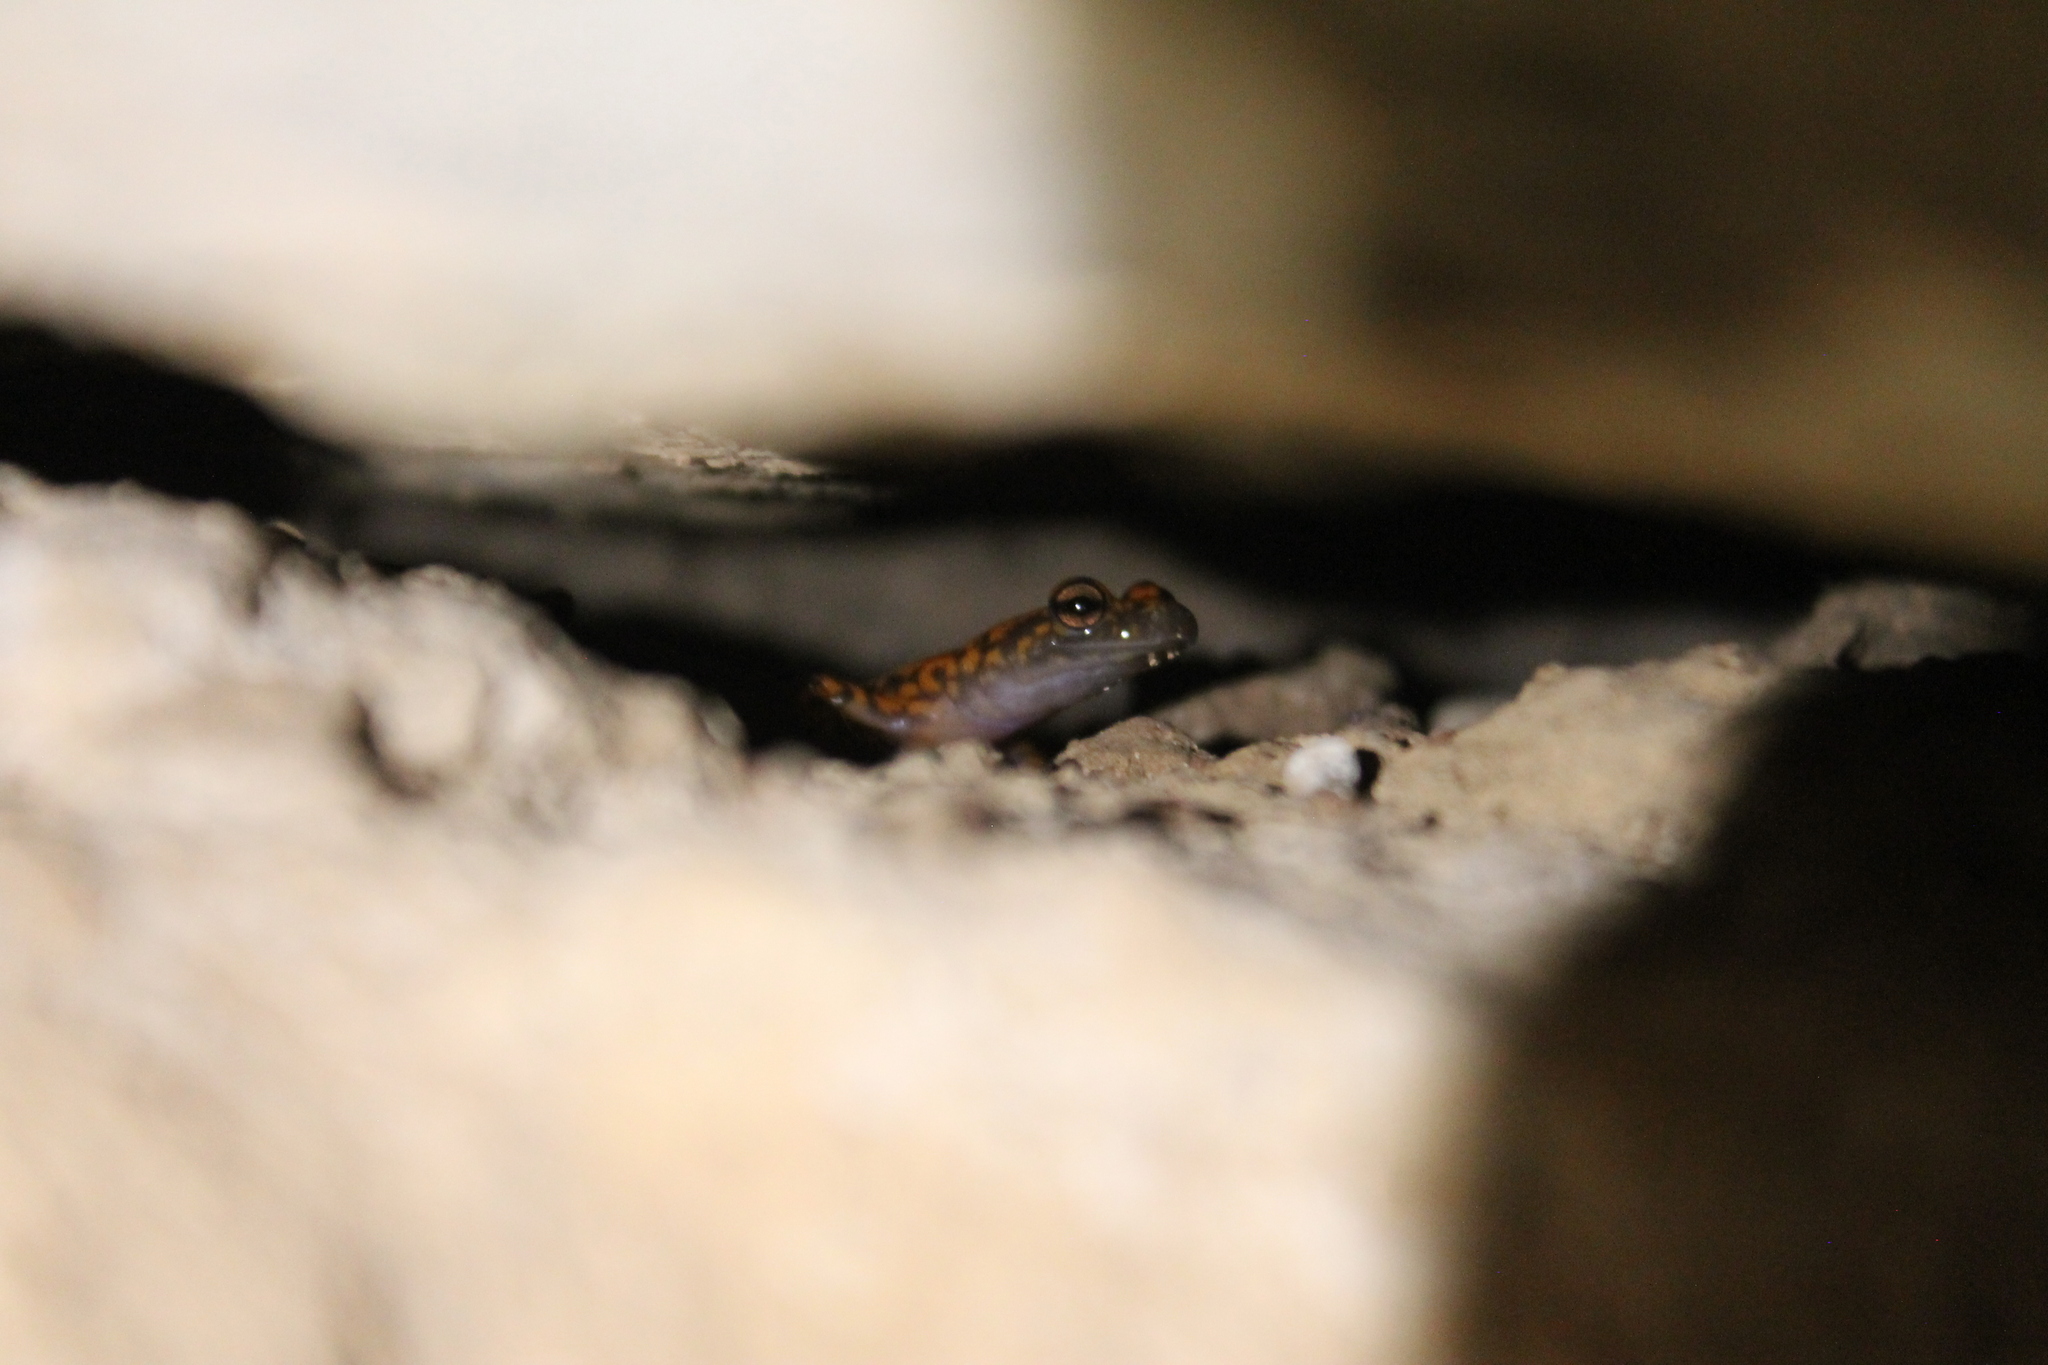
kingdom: Animalia
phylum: Chordata
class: Amphibia
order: Caudata
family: Plethodontidae
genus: Eurycea
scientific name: Eurycea lucifuga
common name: Cave salamander
